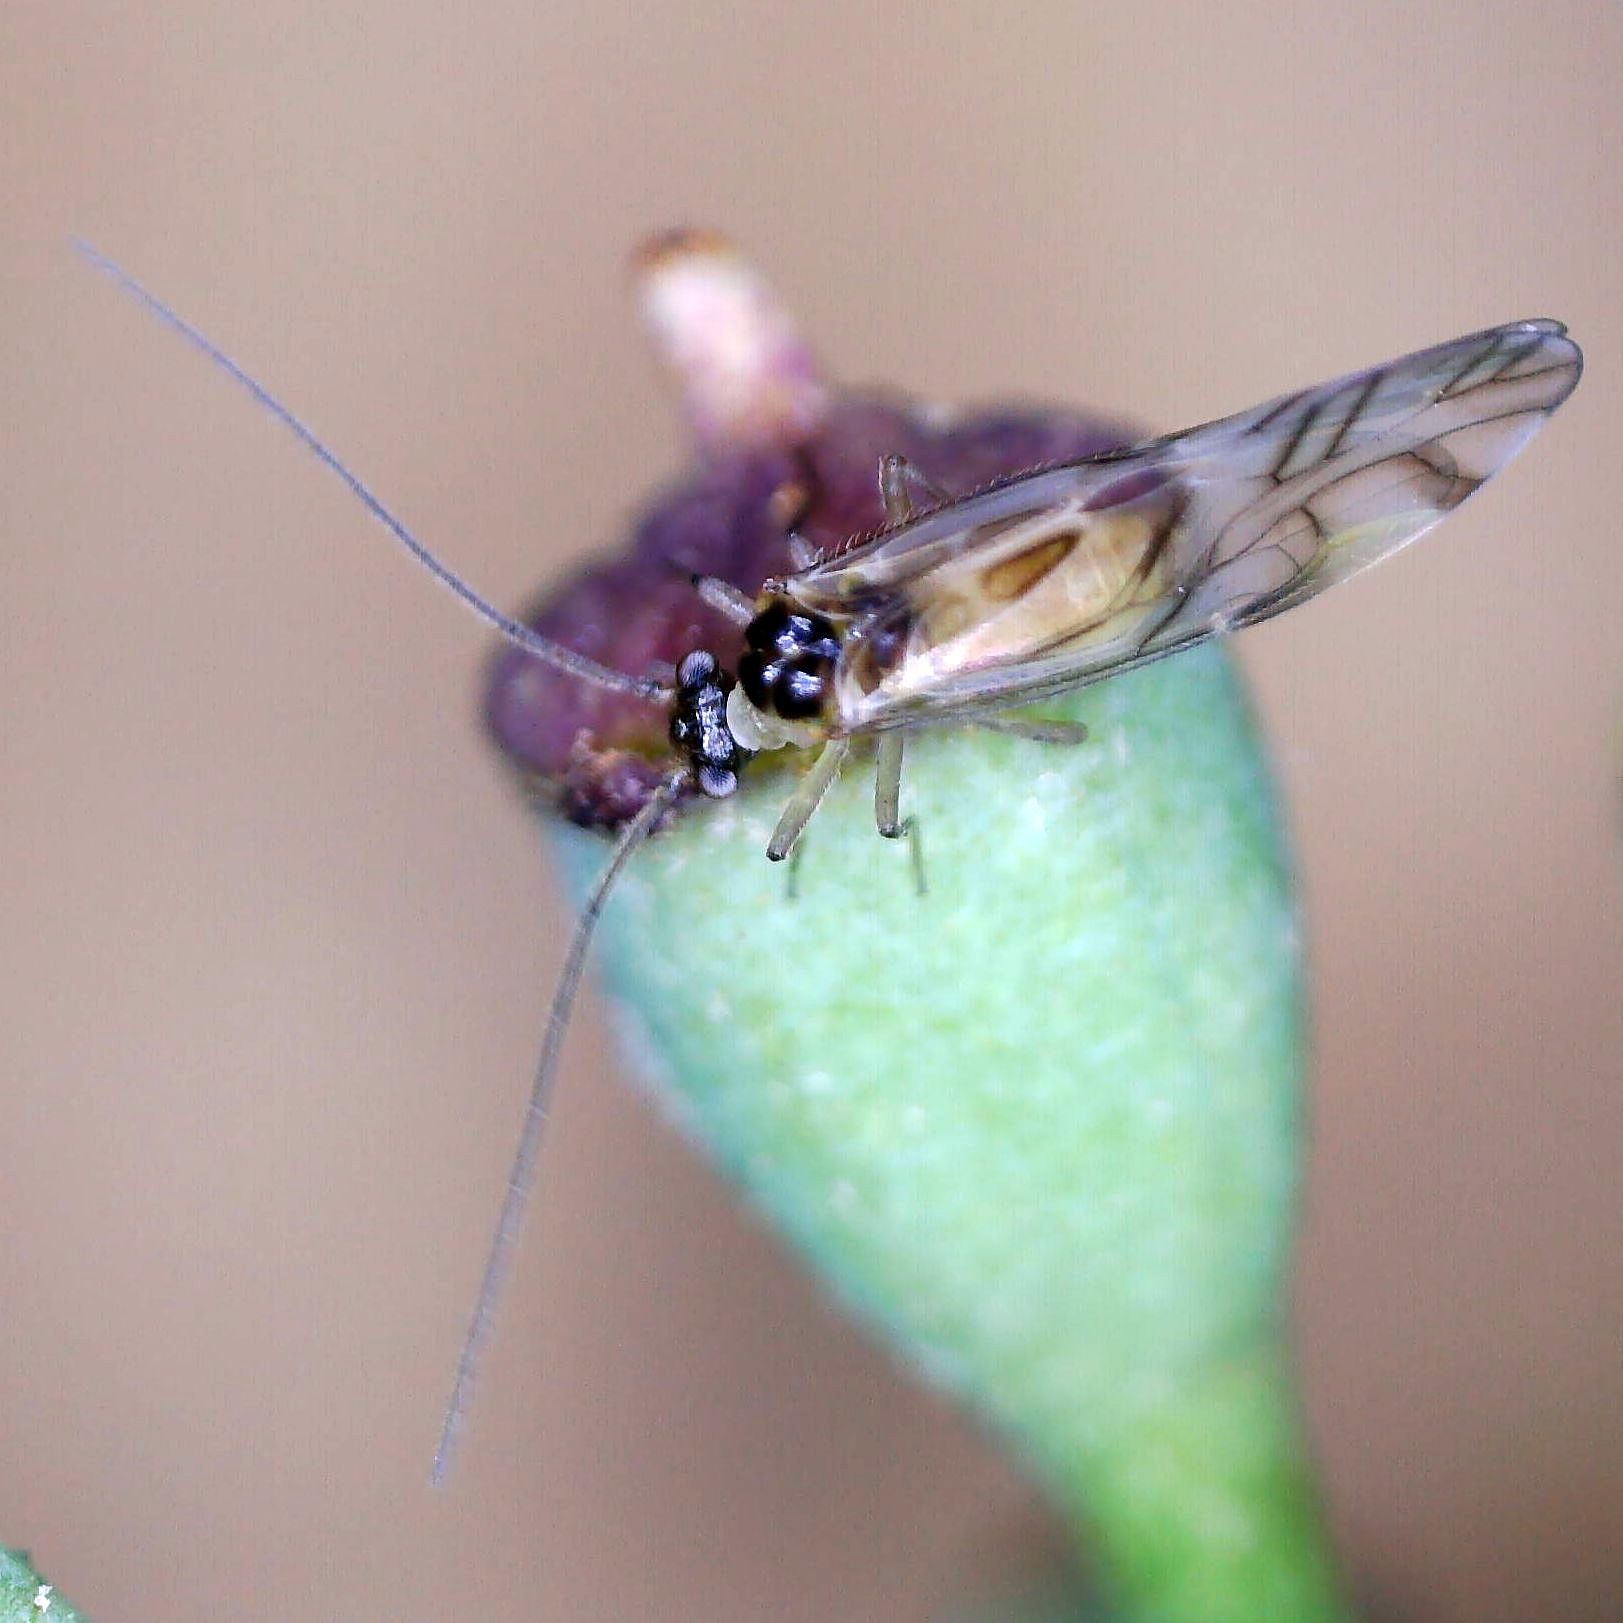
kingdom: Animalia
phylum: Arthropoda
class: Insecta
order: Psocodea
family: Stenopsocidae
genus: Graphopsocus
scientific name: Graphopsocus cruciatus
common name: Lizard bark louse
